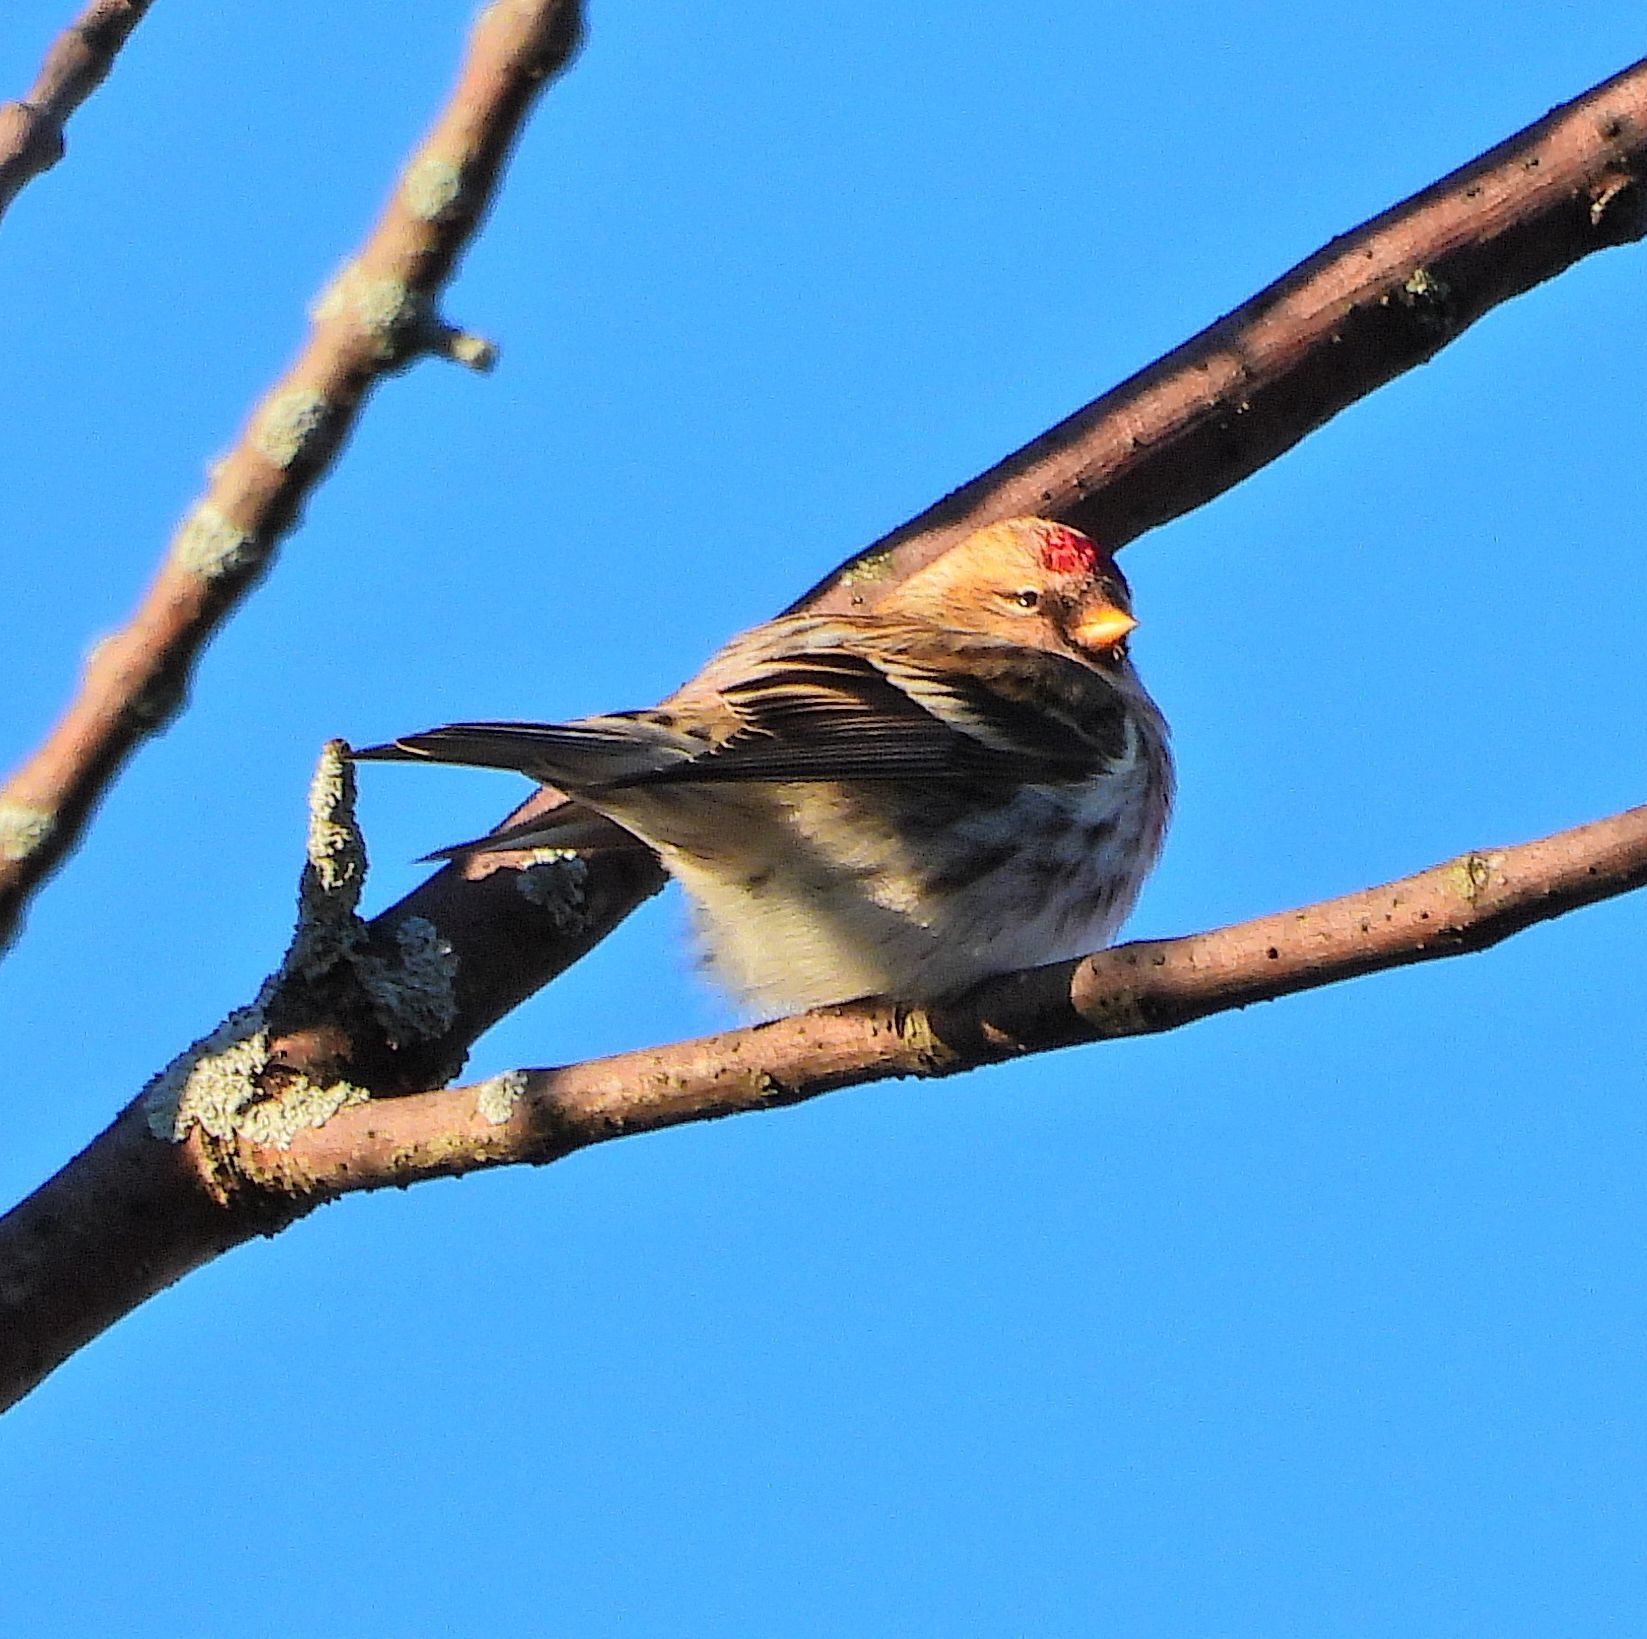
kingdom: Animalia
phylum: Chordata
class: Aves
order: Passeriformes
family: Fringillidae
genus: Acanthis
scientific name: Acanthis flammea
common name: Common redpoll
